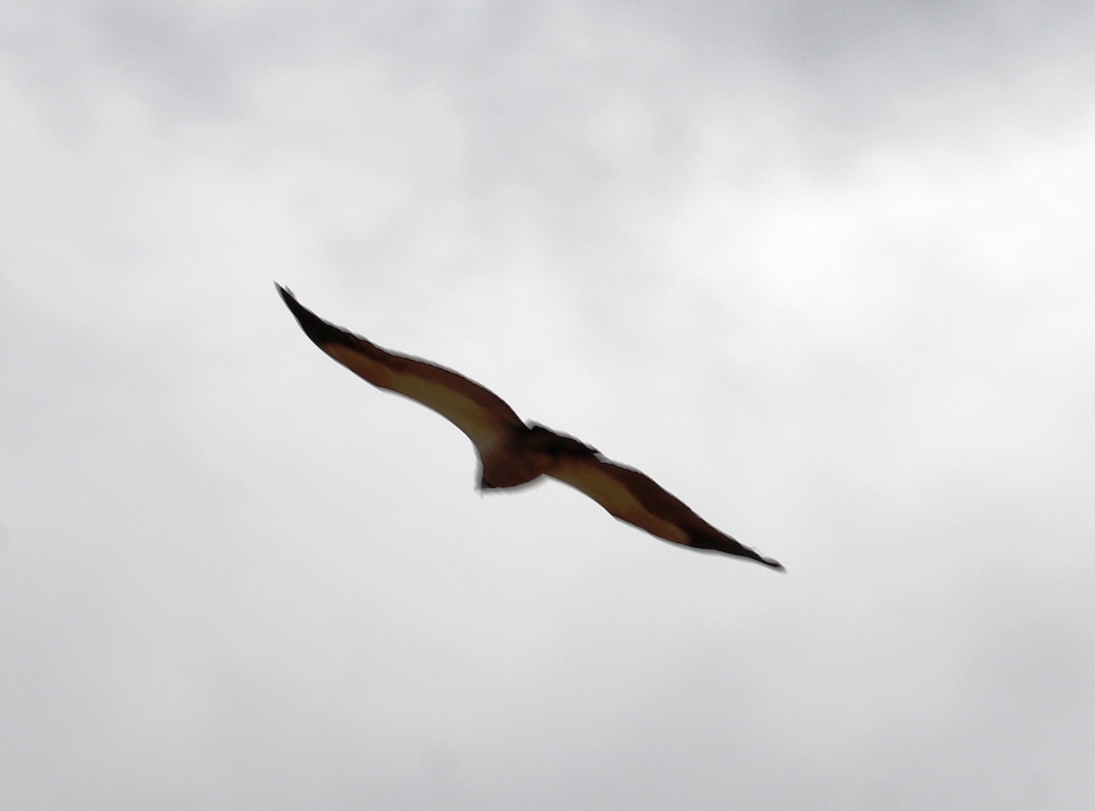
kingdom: Animalia
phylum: Chordata
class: Aves
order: Accipitriformes
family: Accipitridae
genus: Gyps
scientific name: Gyps coprotheres
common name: Cape vulture
